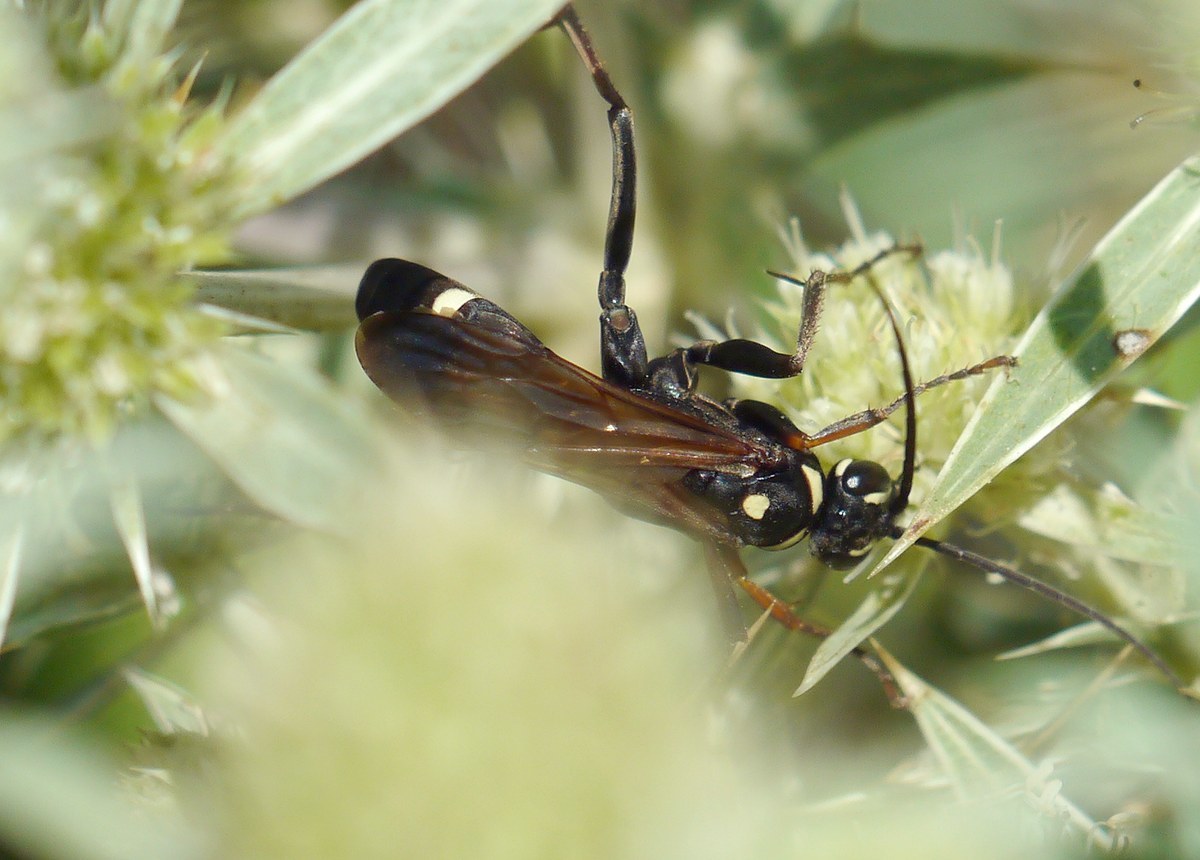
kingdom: Animalia
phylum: Arthropoda
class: Insecta
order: Hymenoptera
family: Pompilidae
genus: Cryptocheilus
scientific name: Cryptocheilus egregius
